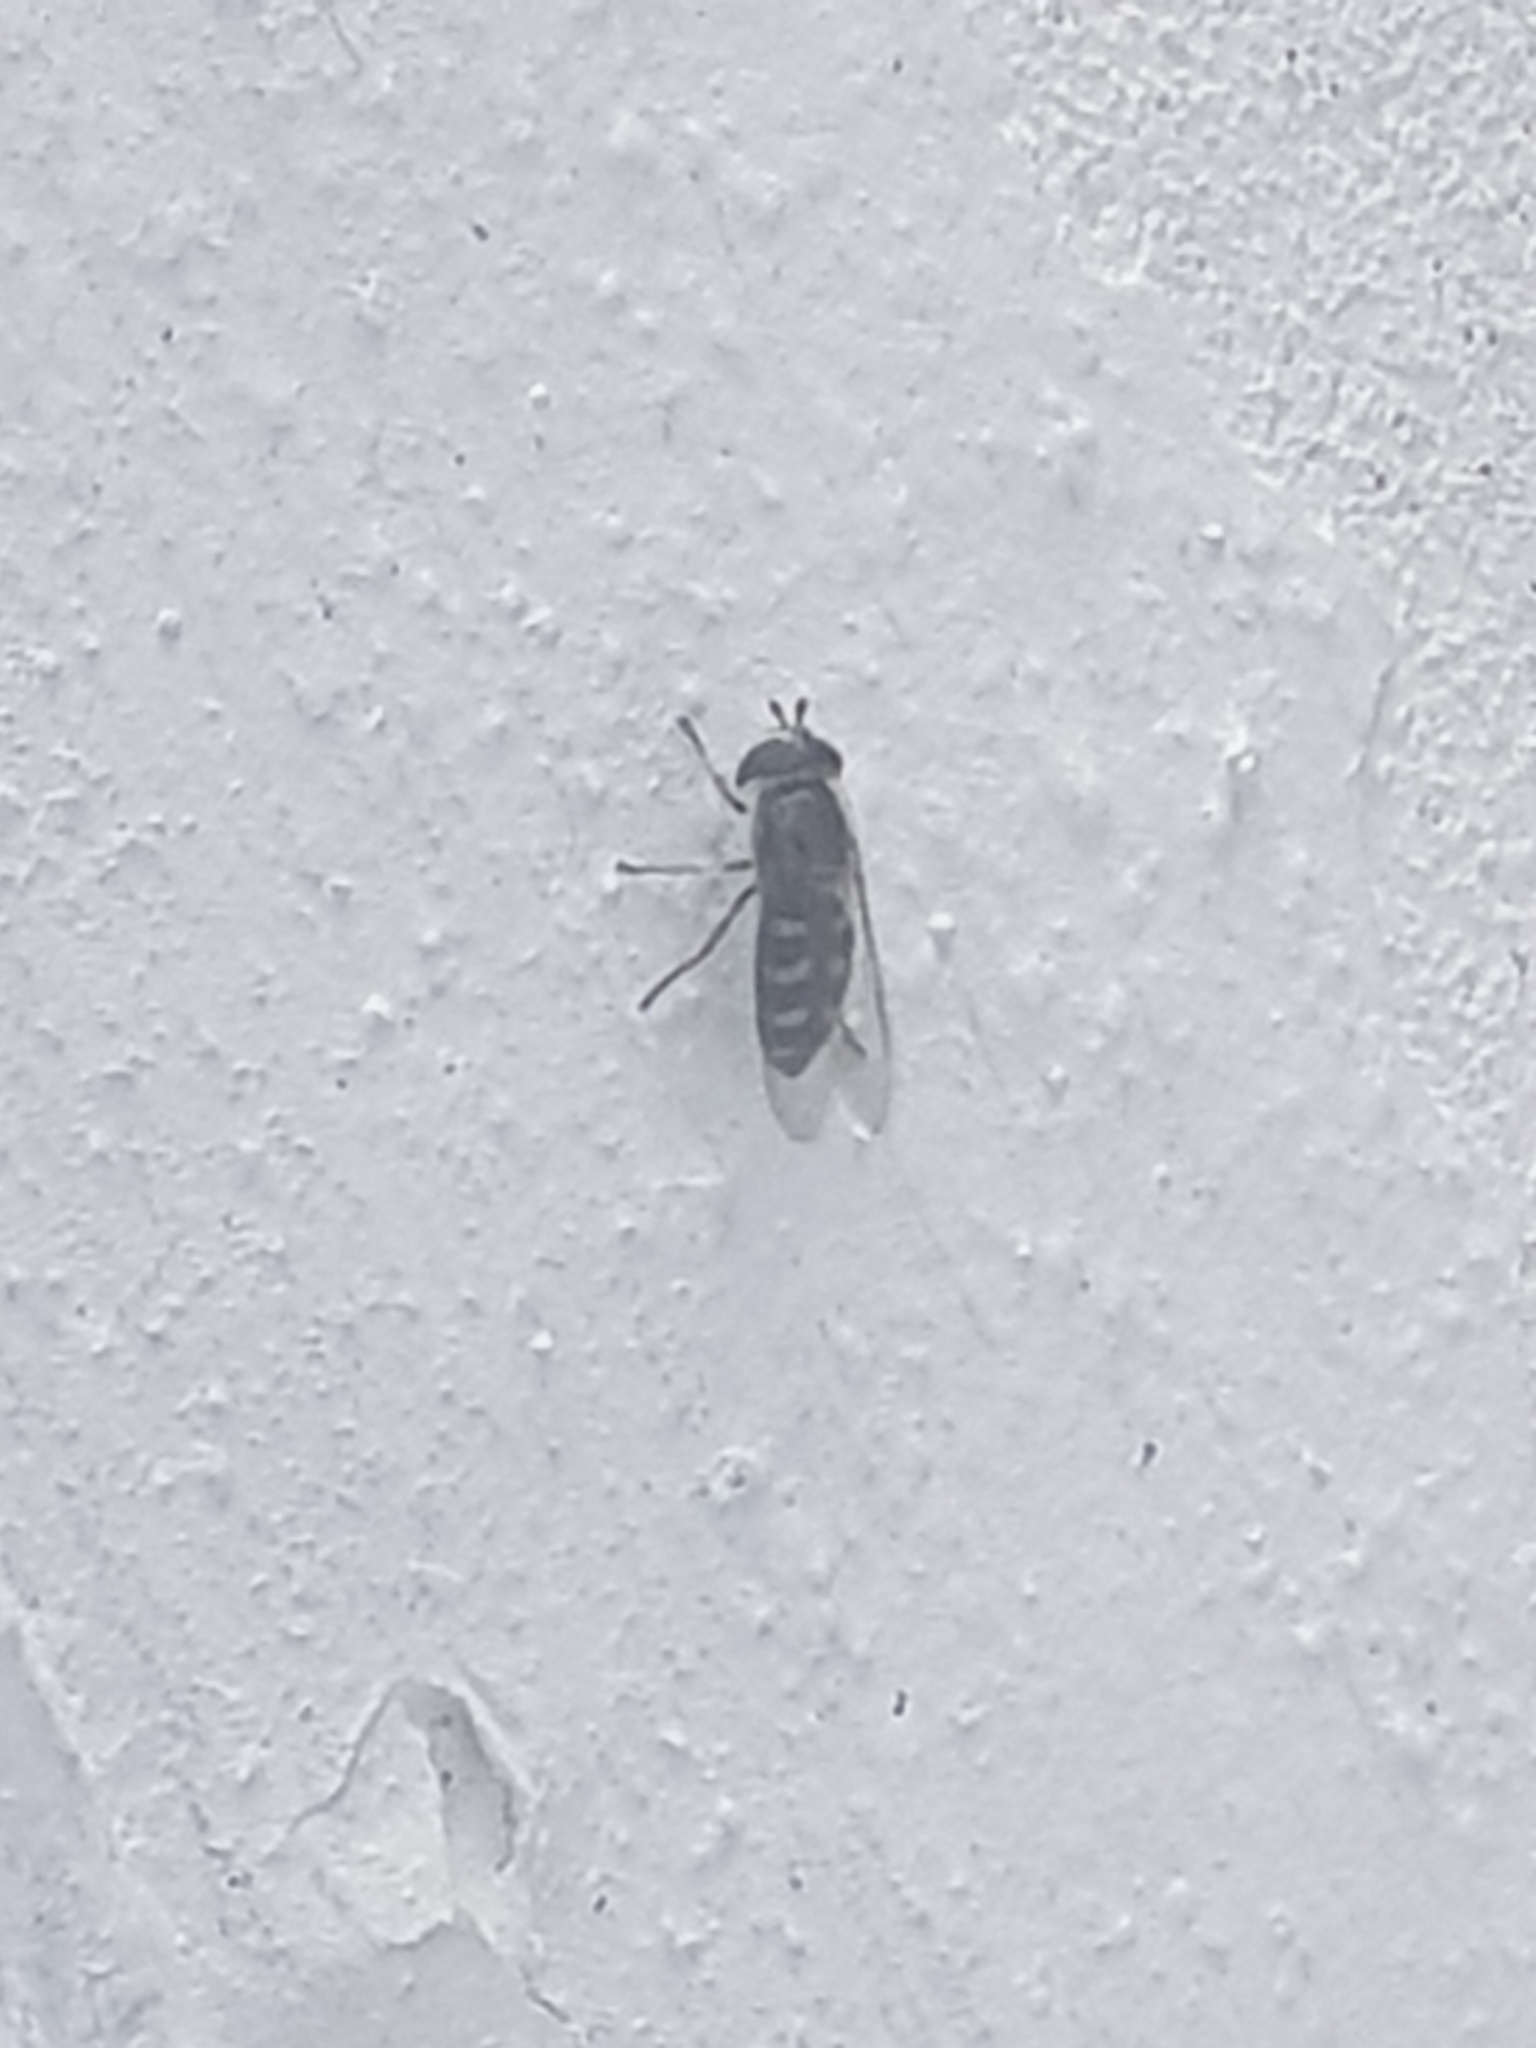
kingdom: Animalia
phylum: Arthropoda
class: Insecta
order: Diptera
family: Syrphidae
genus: Eupeodes
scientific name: Eupeodes
